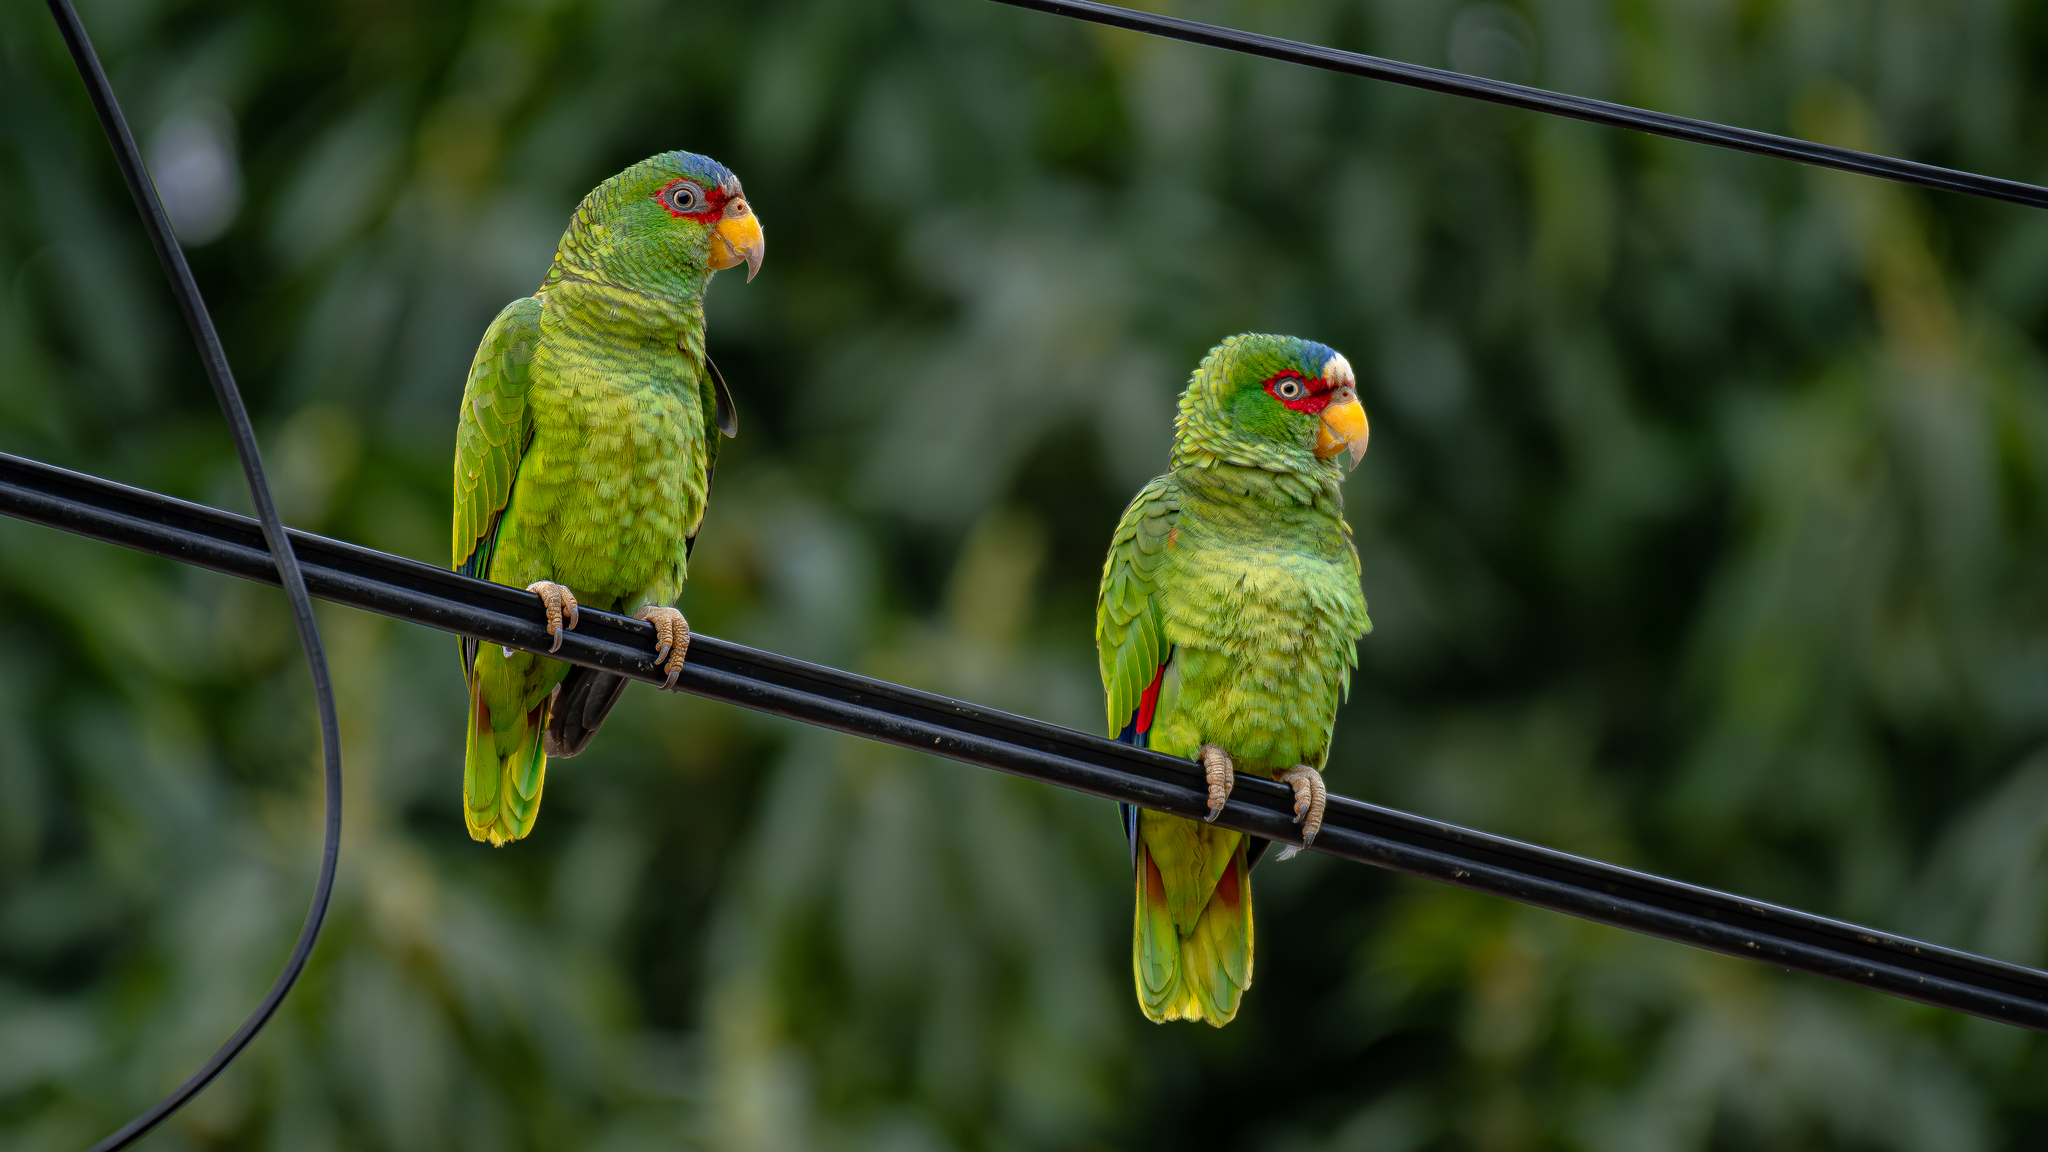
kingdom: Animalia
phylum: Chordata
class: Aves
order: Psittaciformes
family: Psittacidae
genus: Amazona
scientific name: Amazona albifrons
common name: White-fronted amazon
